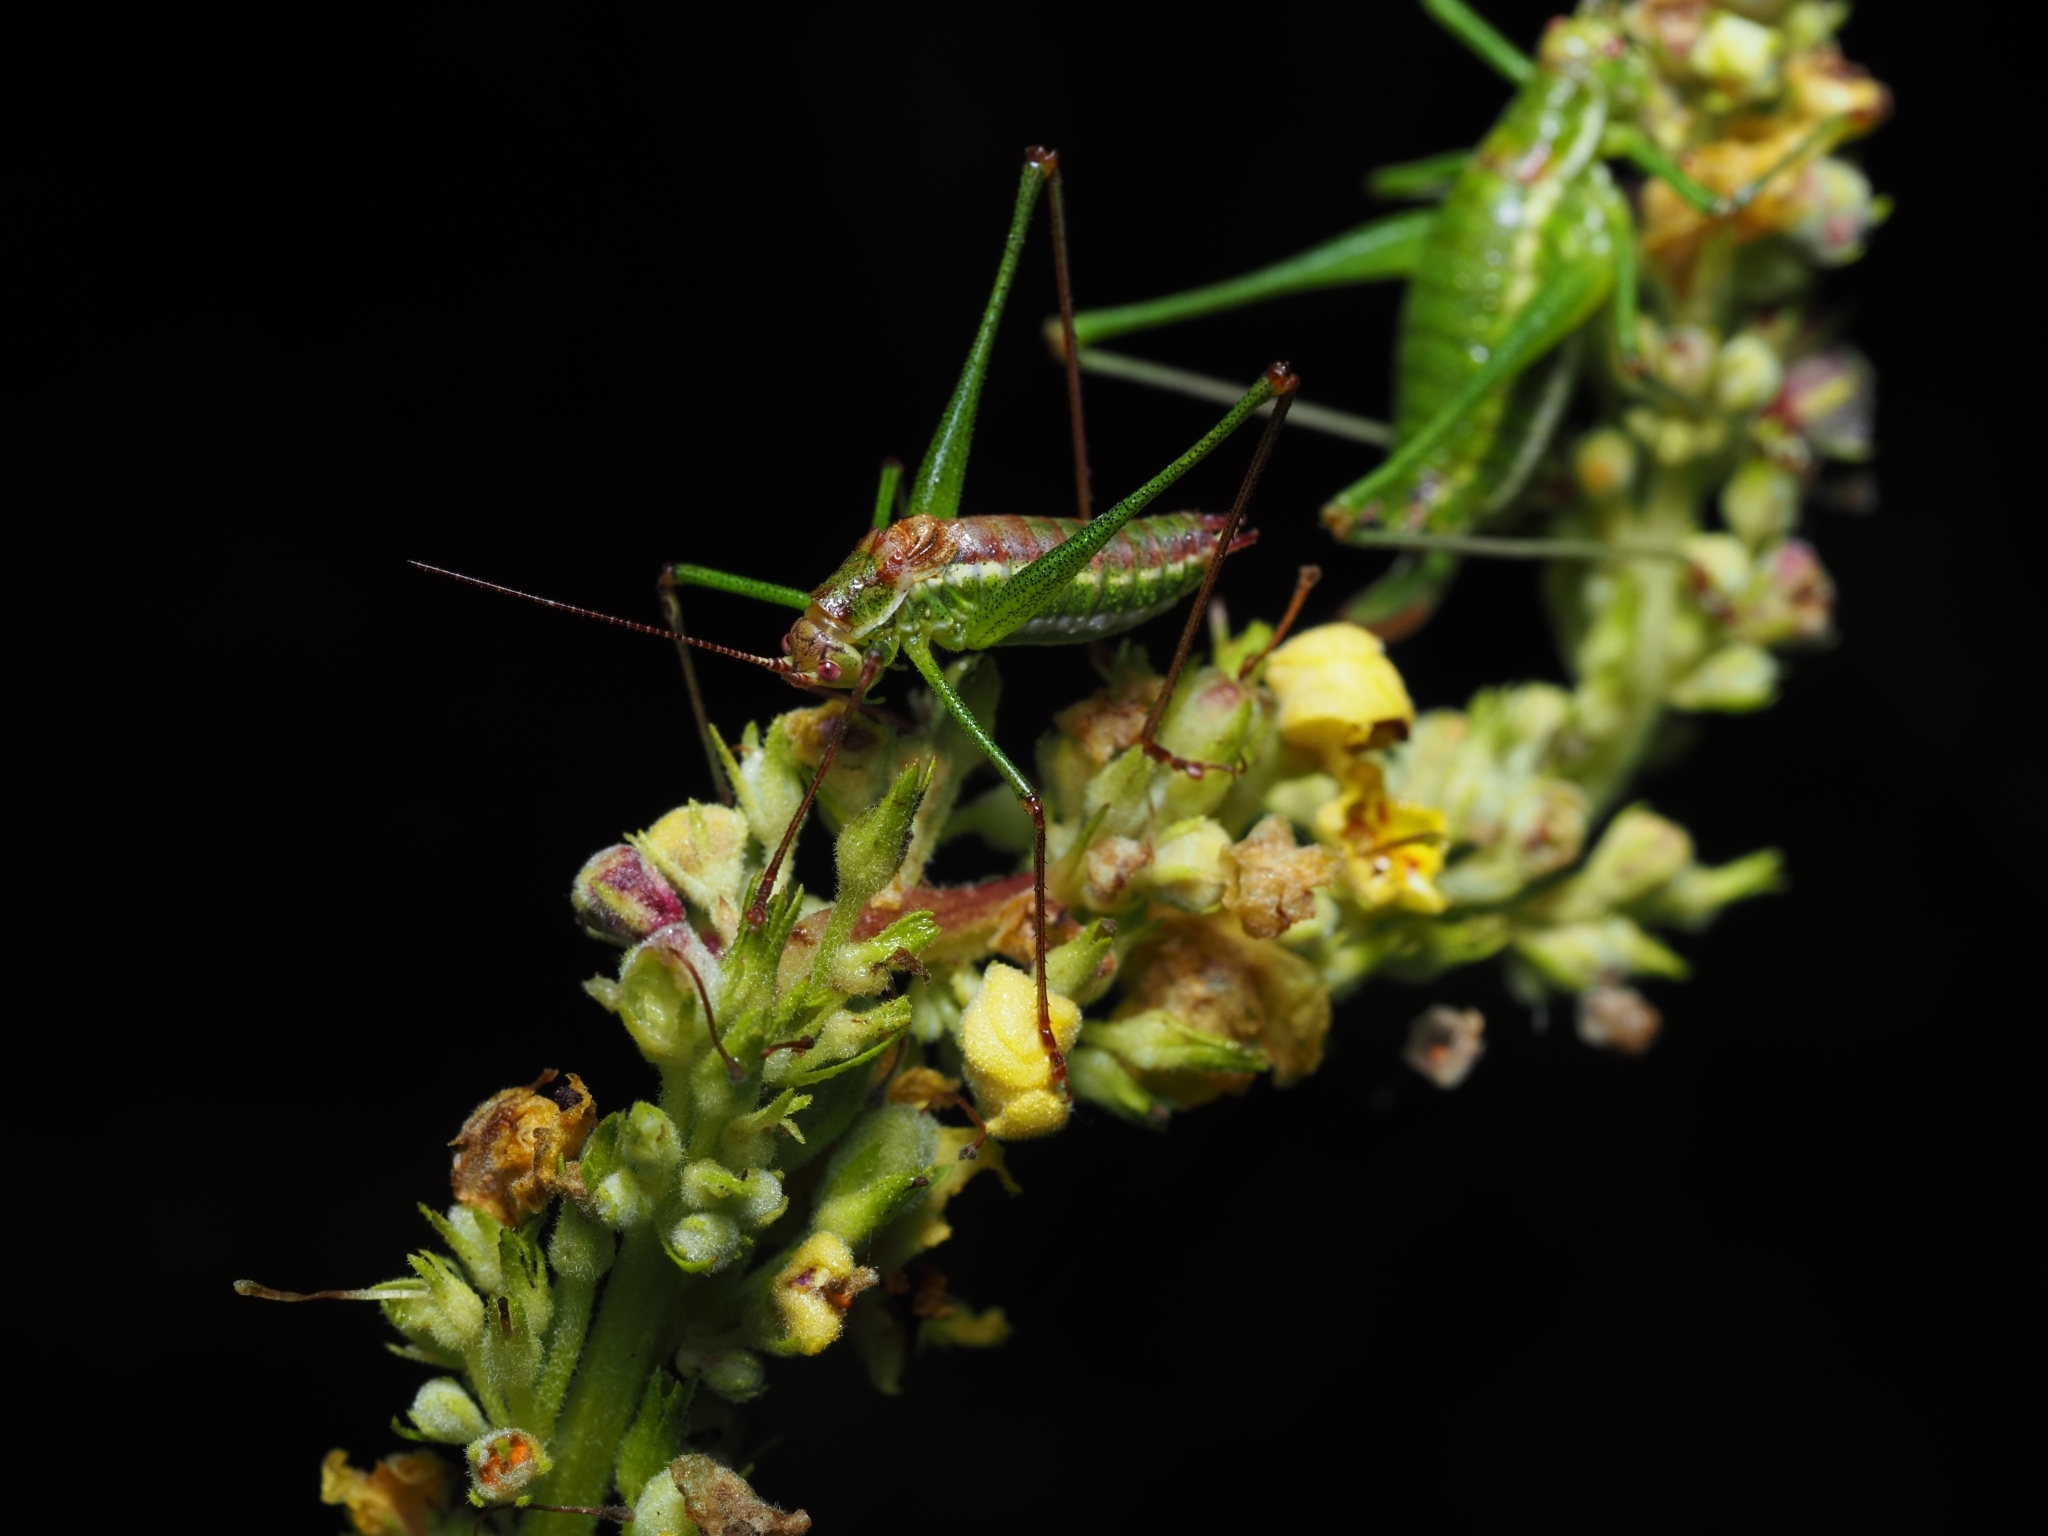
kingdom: Animalia
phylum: Arthropoda
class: Insecta
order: Orthoptera
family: Tettigoniidae
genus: Leptophyes
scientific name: Leptophyes albovittata
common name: Striped bush-cricket
